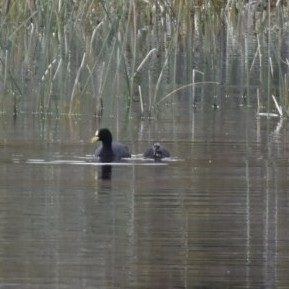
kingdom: Animalia
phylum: Chordata
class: Aves
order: Gruiformes
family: Rallidae
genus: Fulica
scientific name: Fulica armillata
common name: Red-gartered coot
